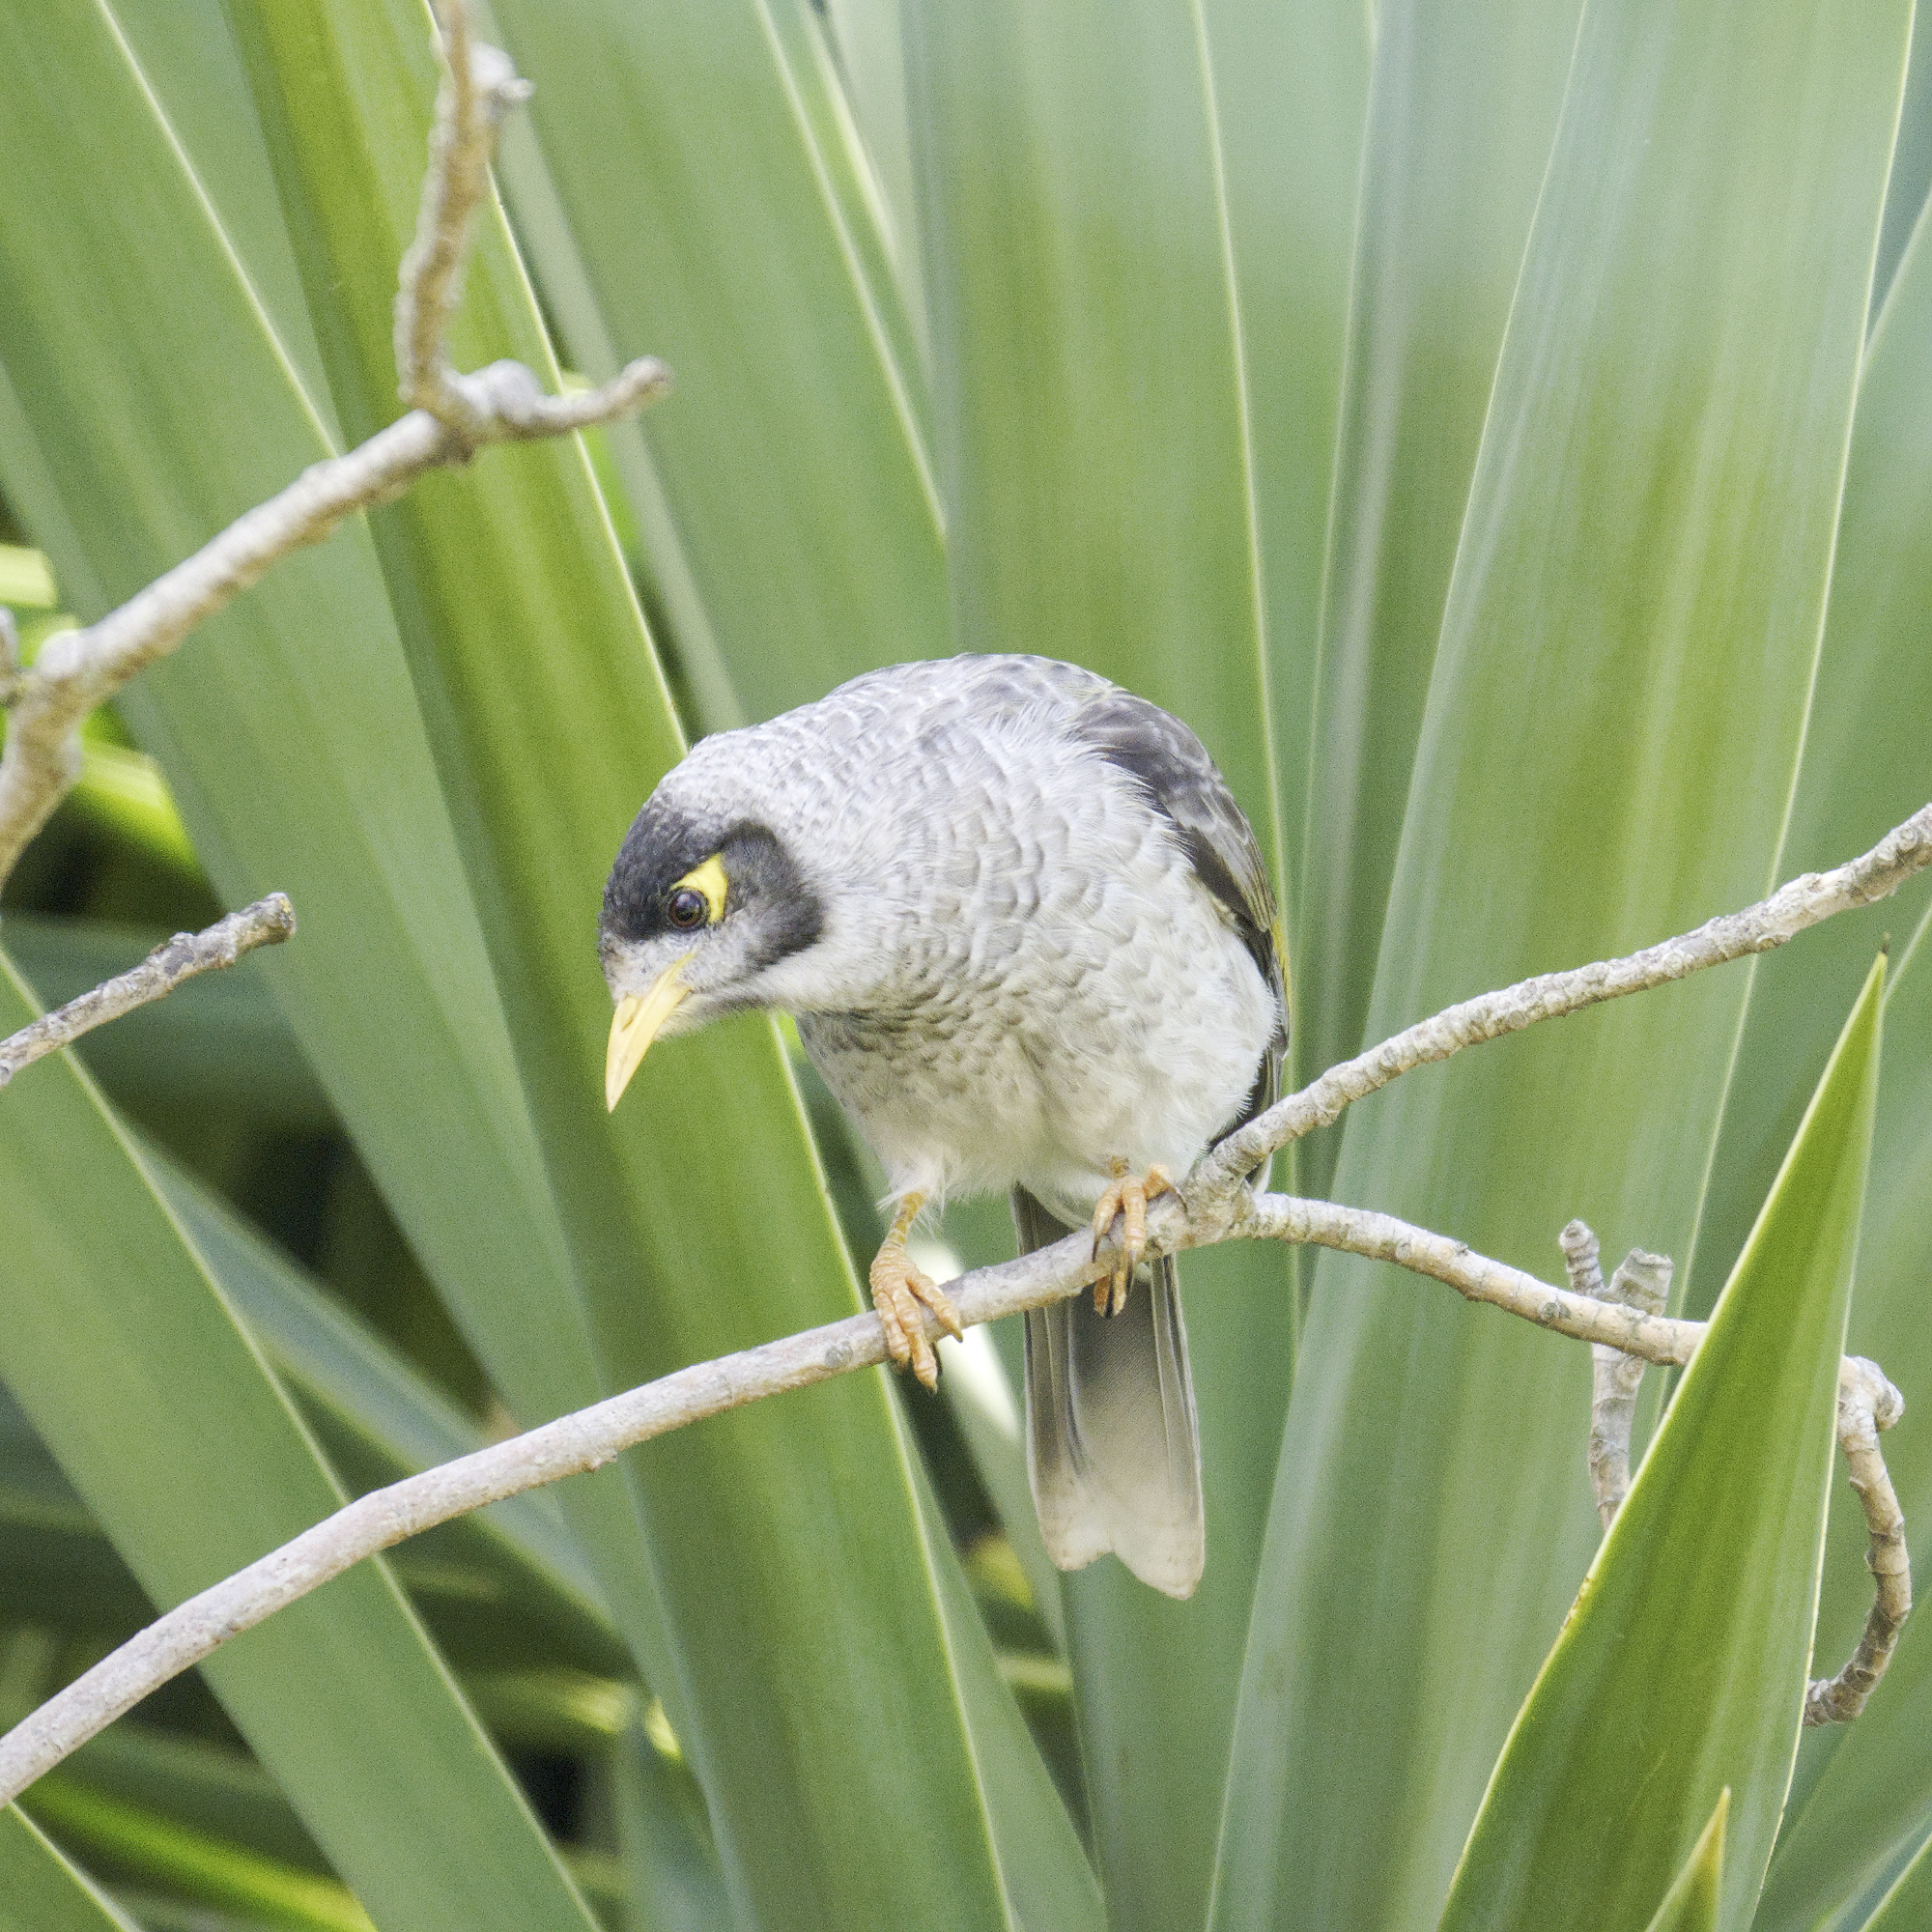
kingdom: Animalia
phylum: Chordata
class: Aves
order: Passeriformes
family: Meliphagidae
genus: Manorina
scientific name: Manorina melanocephala
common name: Noisy miner
